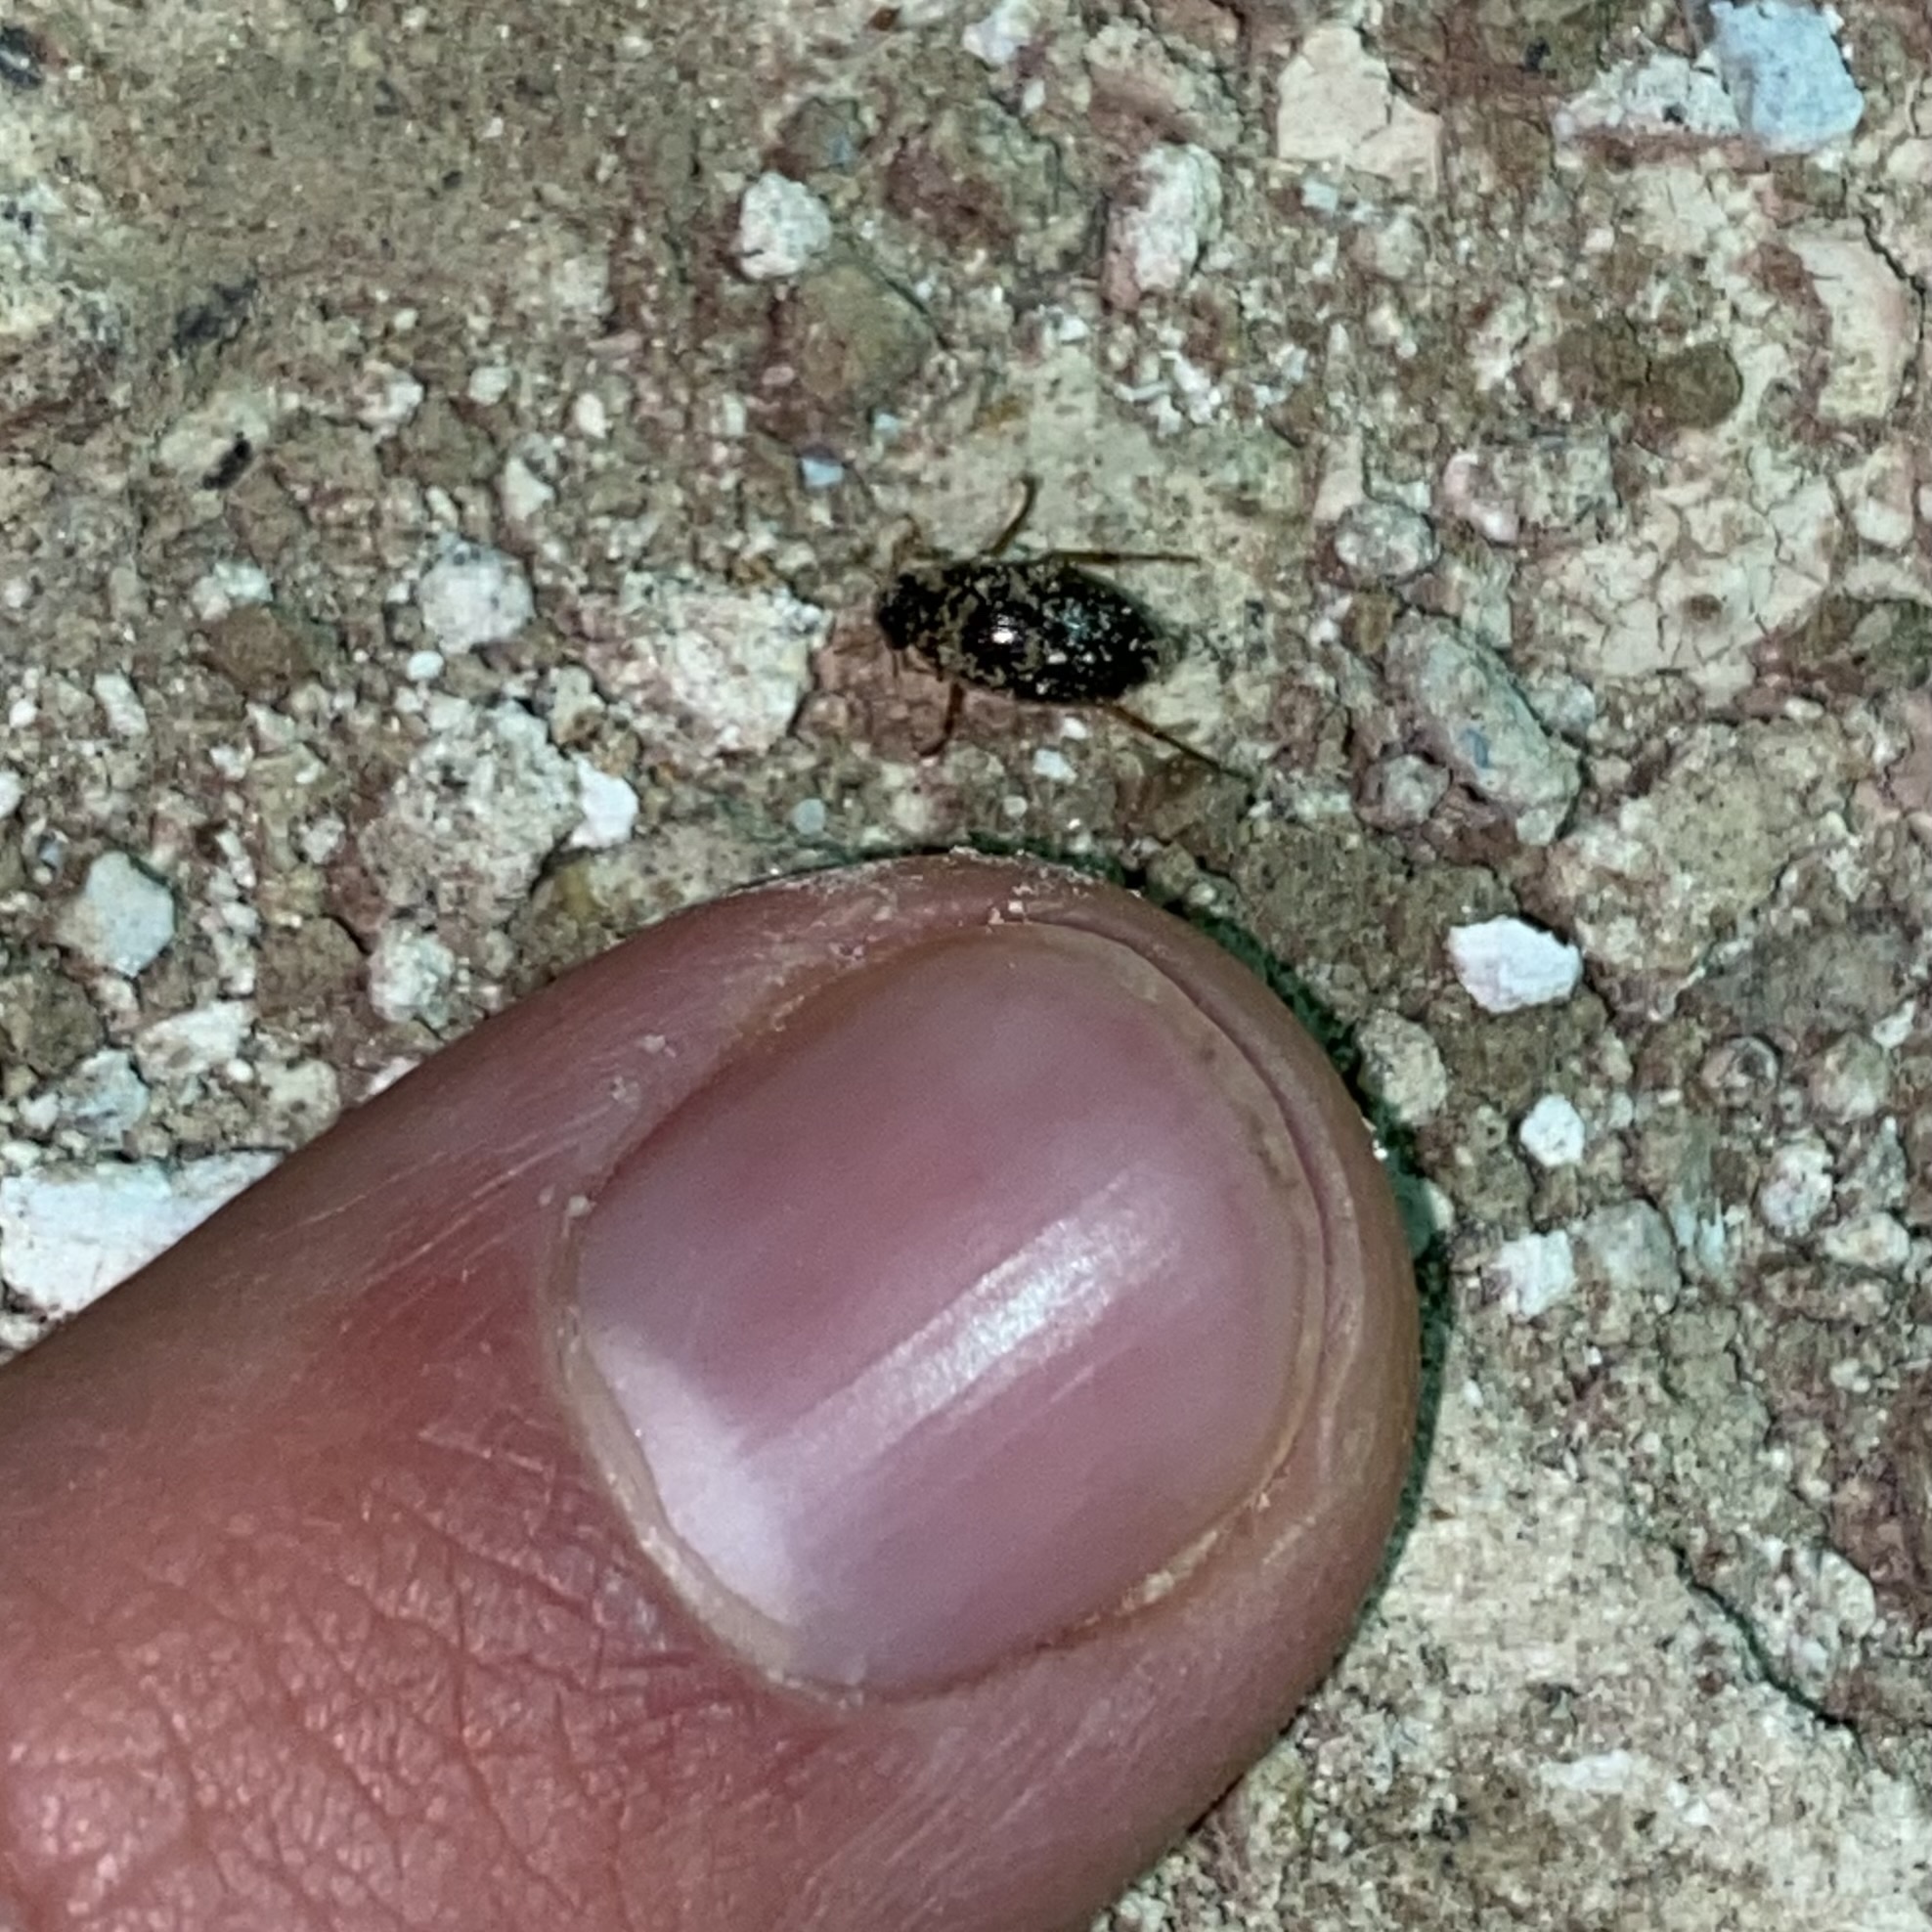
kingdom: Animalia
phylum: Arthropoda
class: Insecta
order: Coleoptera
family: Hydrophilidae
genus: Berosus
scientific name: Berosus
